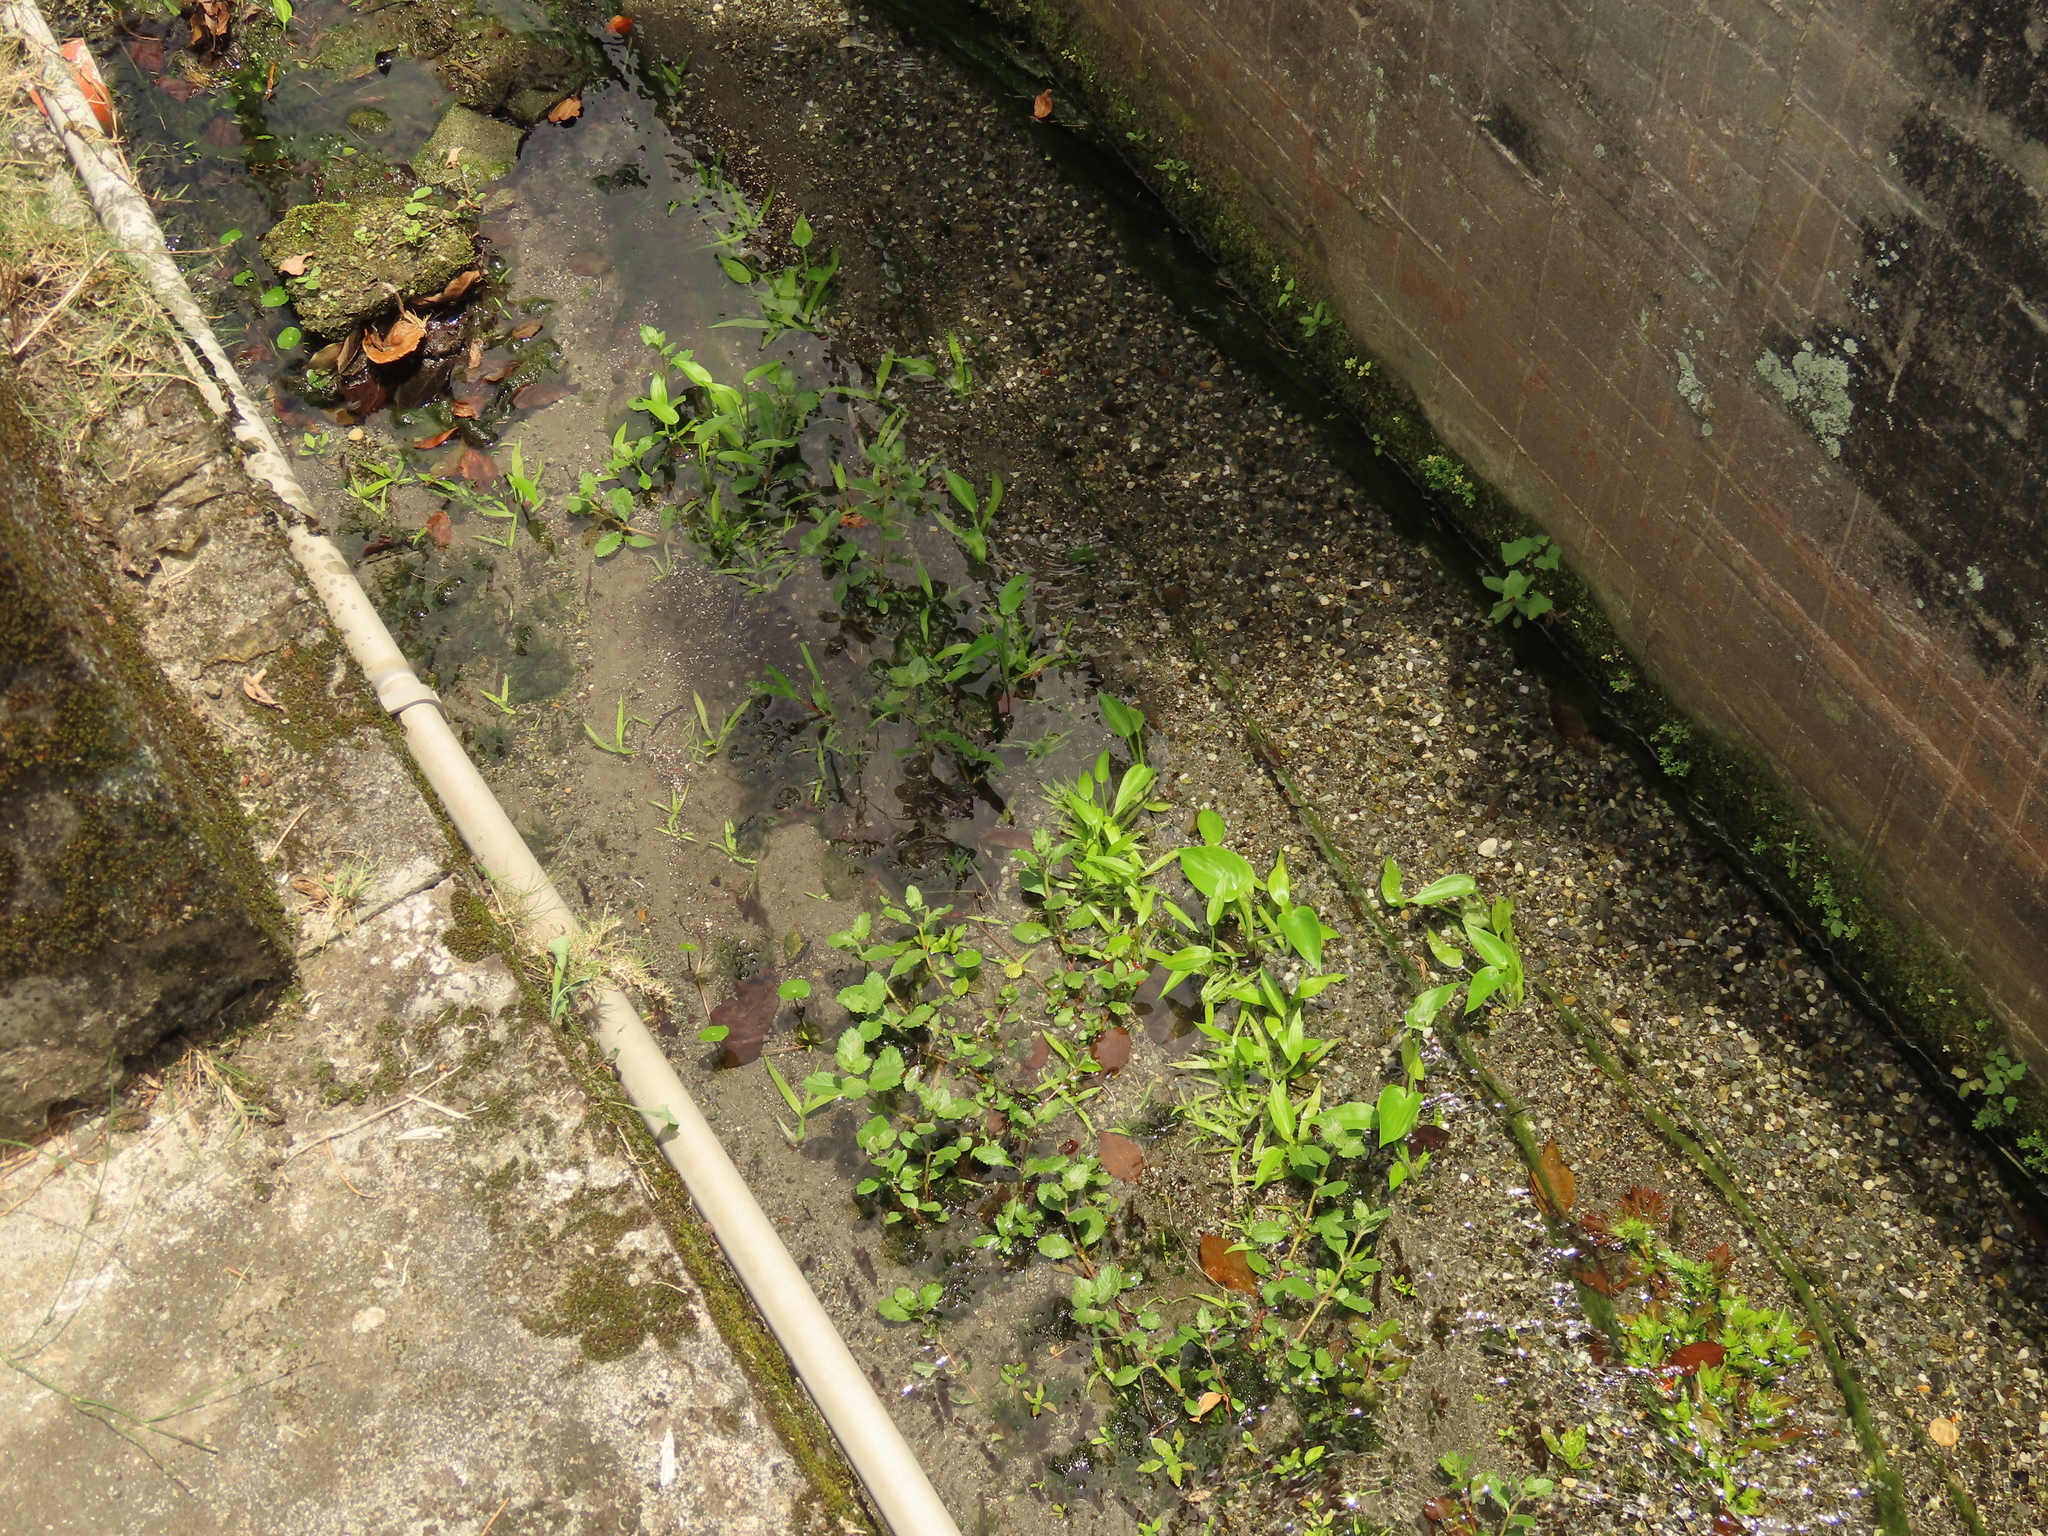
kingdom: Plantae
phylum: Tracheophyta
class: Liliopsida
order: Commelinales
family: Pontederiaceae
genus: Pontederia
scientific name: Pontederia vaginalis
